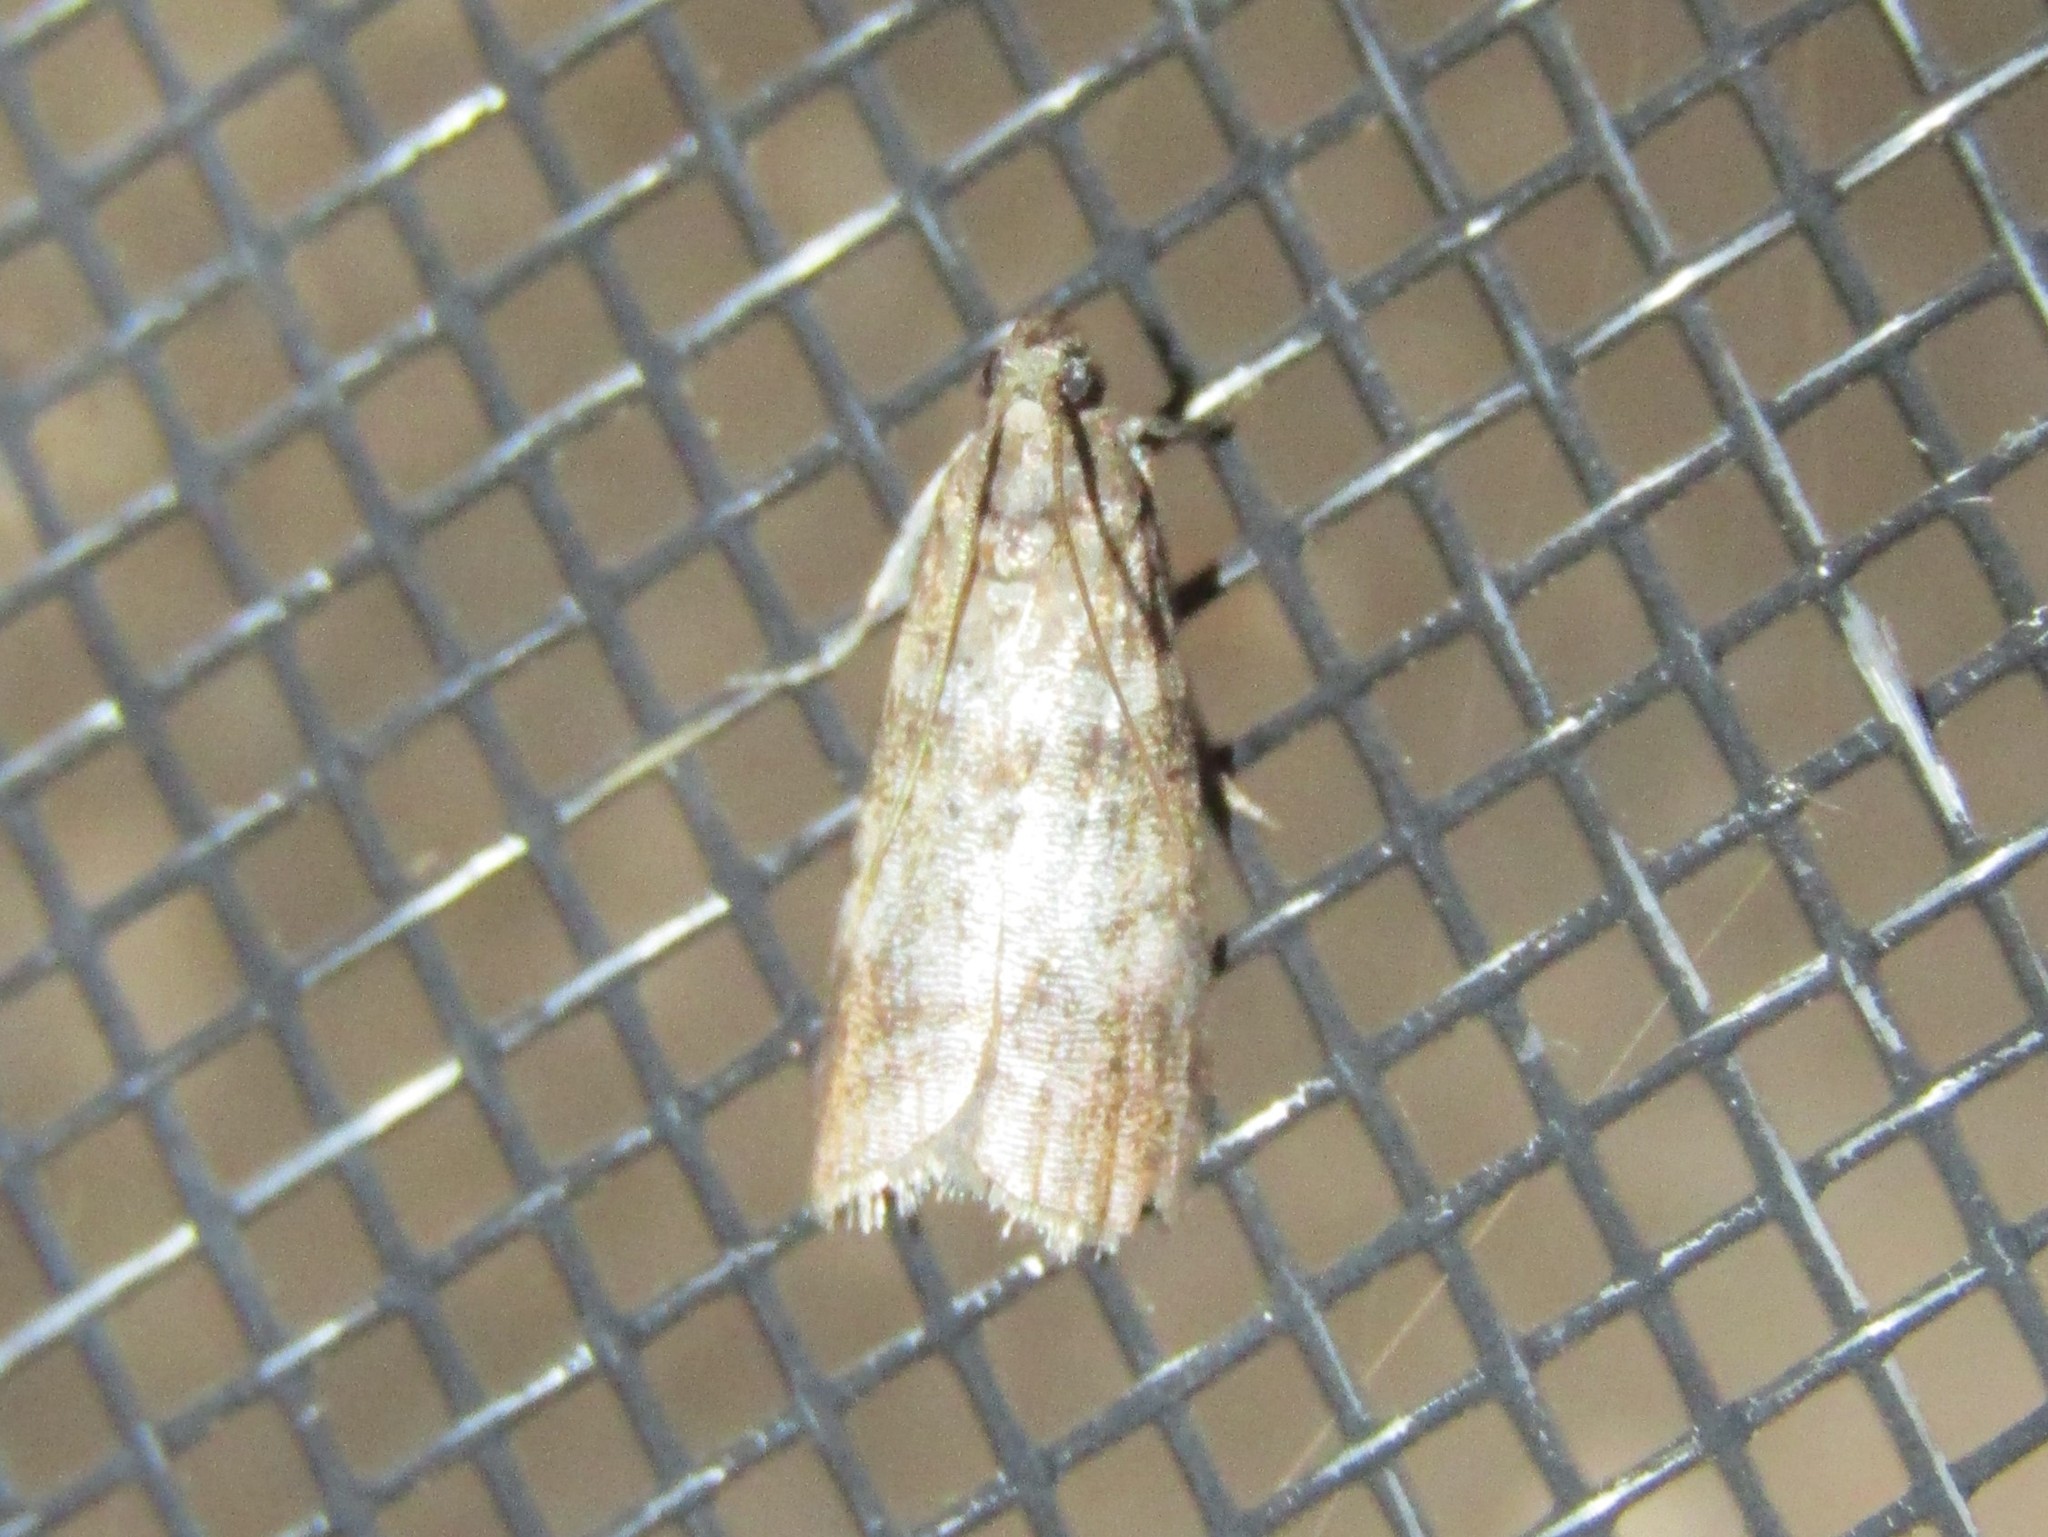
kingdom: Animalia
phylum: Arthropoda
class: Insecta
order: Lepidoptera
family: Pyralidae
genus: Sciota
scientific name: Sciota uvinella
